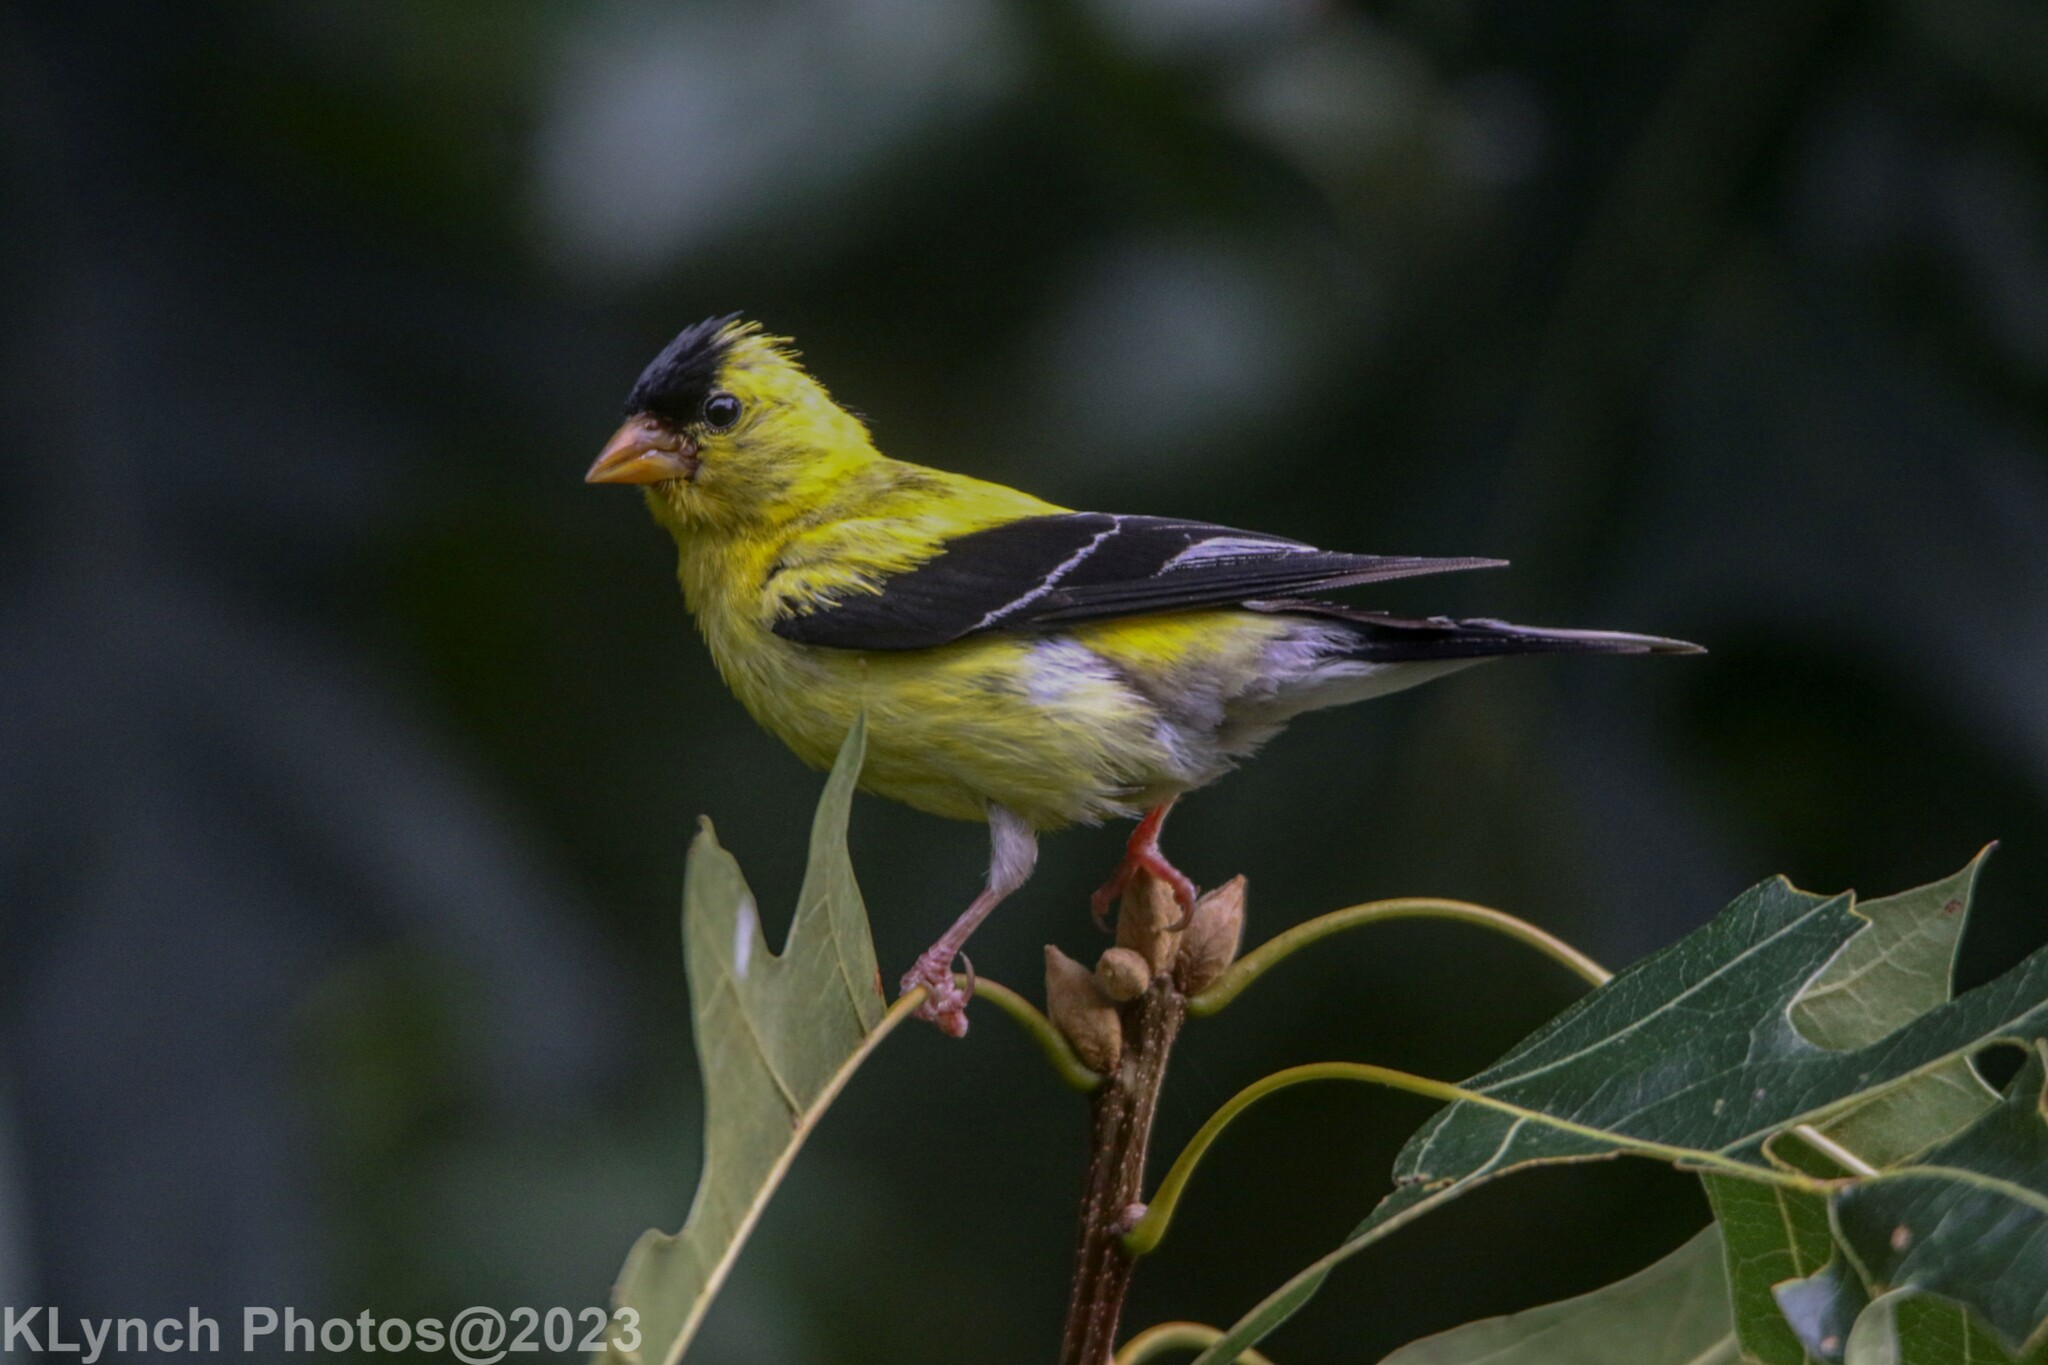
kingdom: Animalia
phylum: Chordata
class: Aves
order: Passeriformes
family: Fringillidae
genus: Spinus
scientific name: Spinus tristis
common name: American goldfinch
